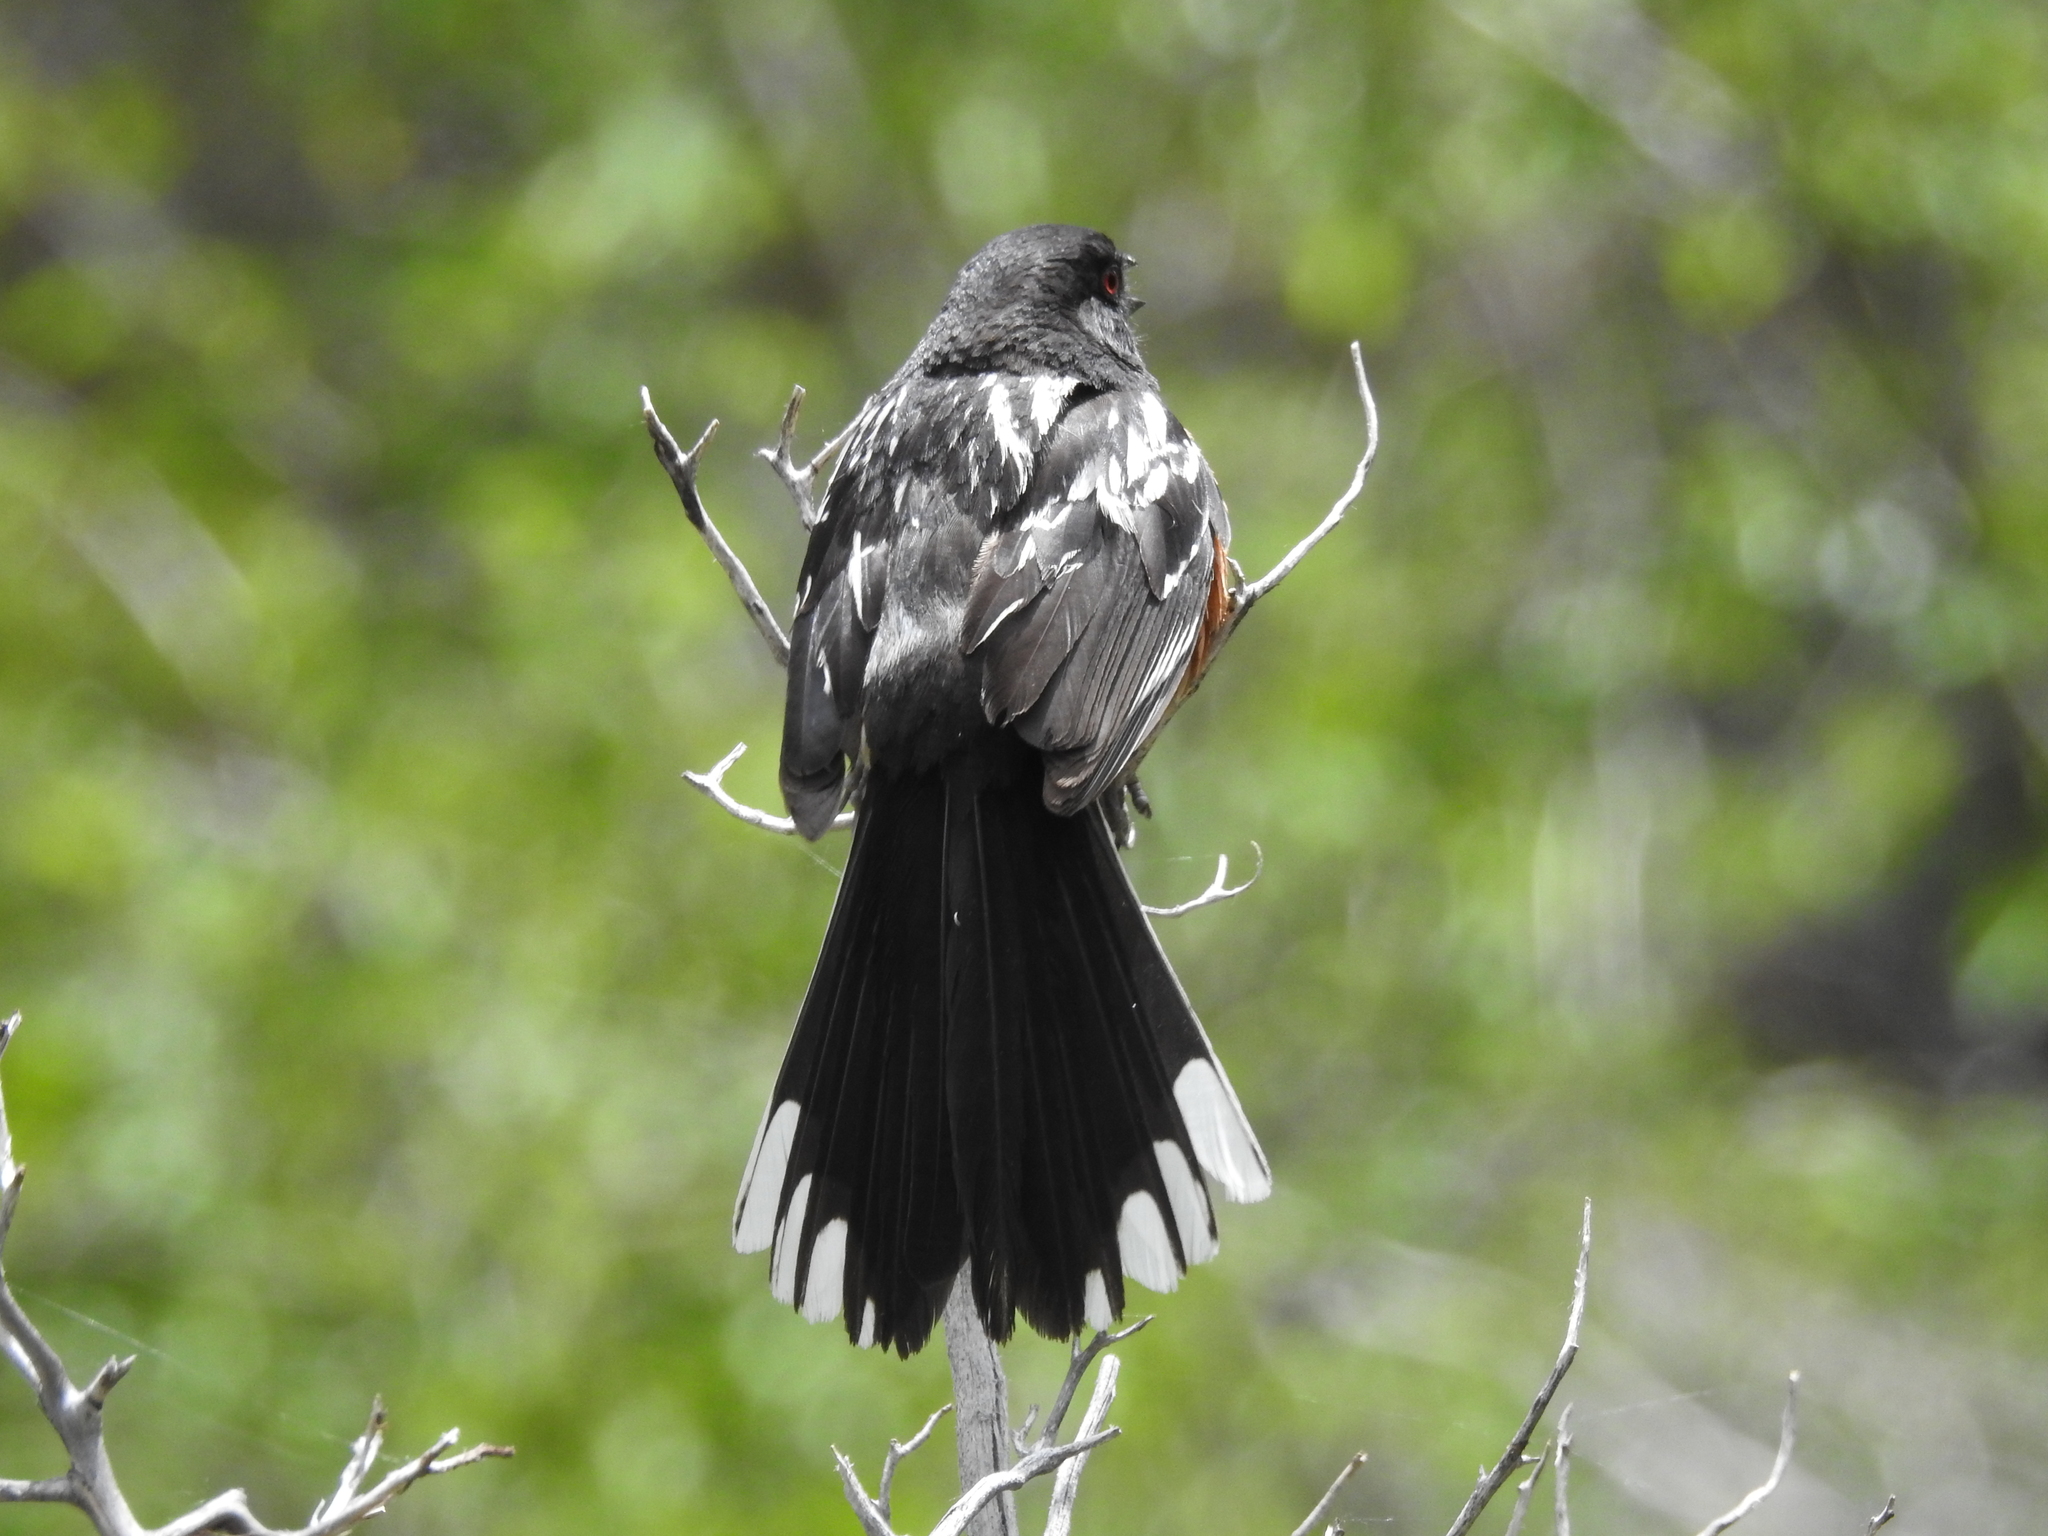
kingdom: Animalia
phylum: Chordata
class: Aves
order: Passeriformes
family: Passerellidae
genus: Pipilo
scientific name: Pipilo maculatus
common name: Spotted towhee
